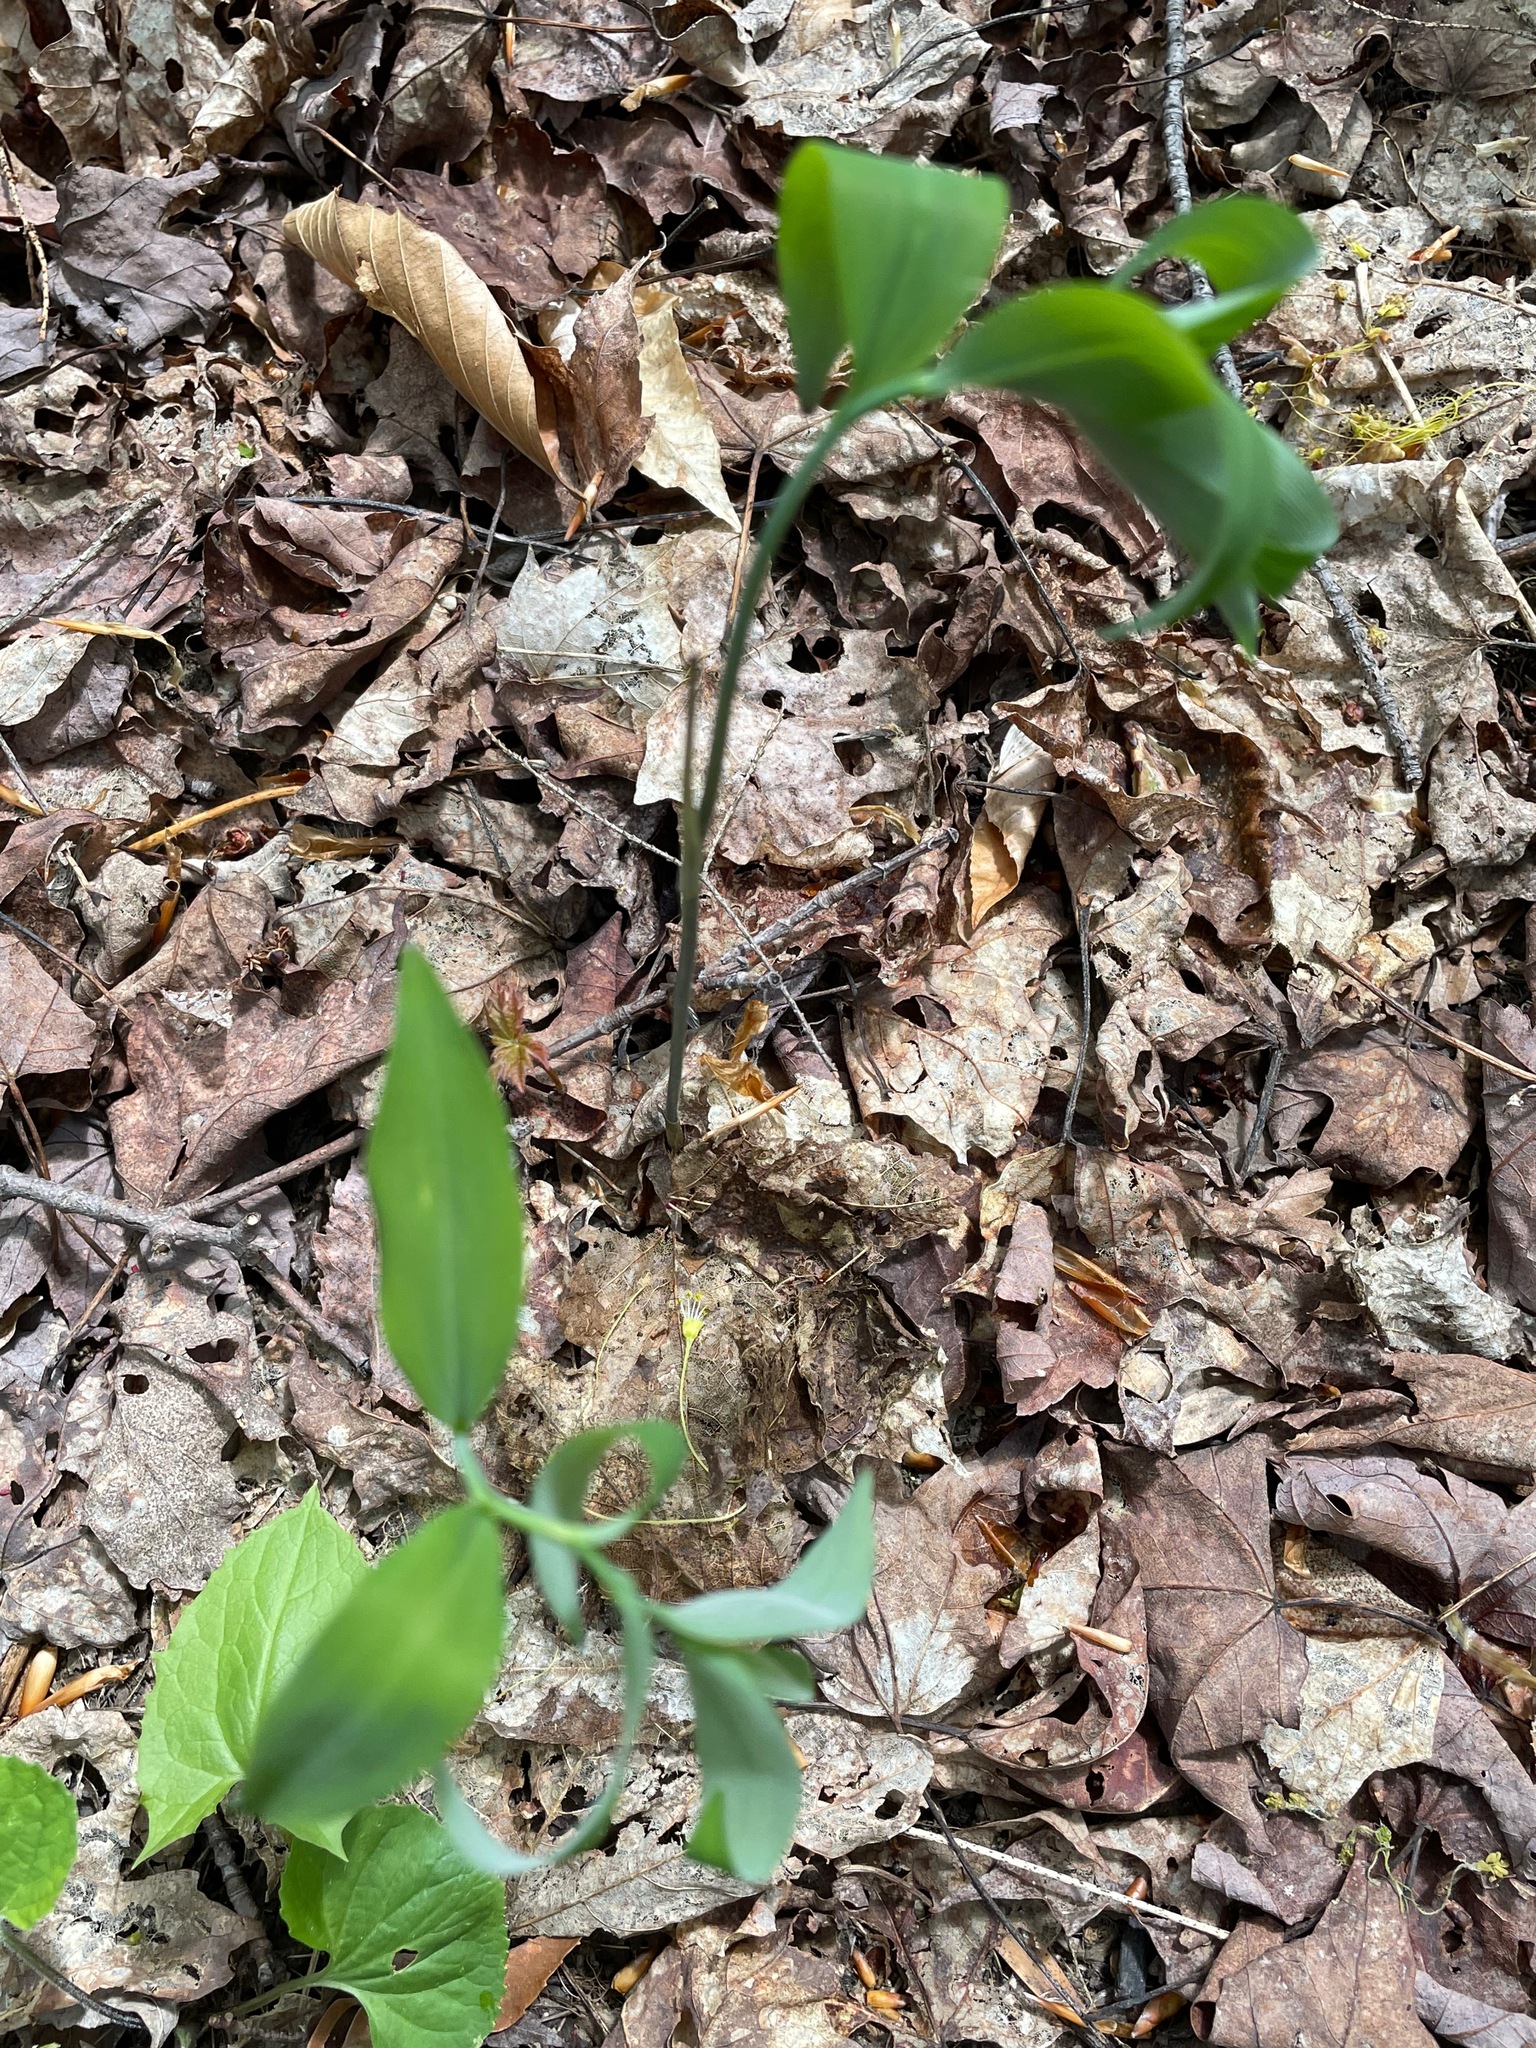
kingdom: Plantae
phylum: Tracheophyta
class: Liliopsida
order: Asparagales
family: Asparagaceae
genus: Polygonatum
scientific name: Polygonatum pubescens
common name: Downy solomon's seal
